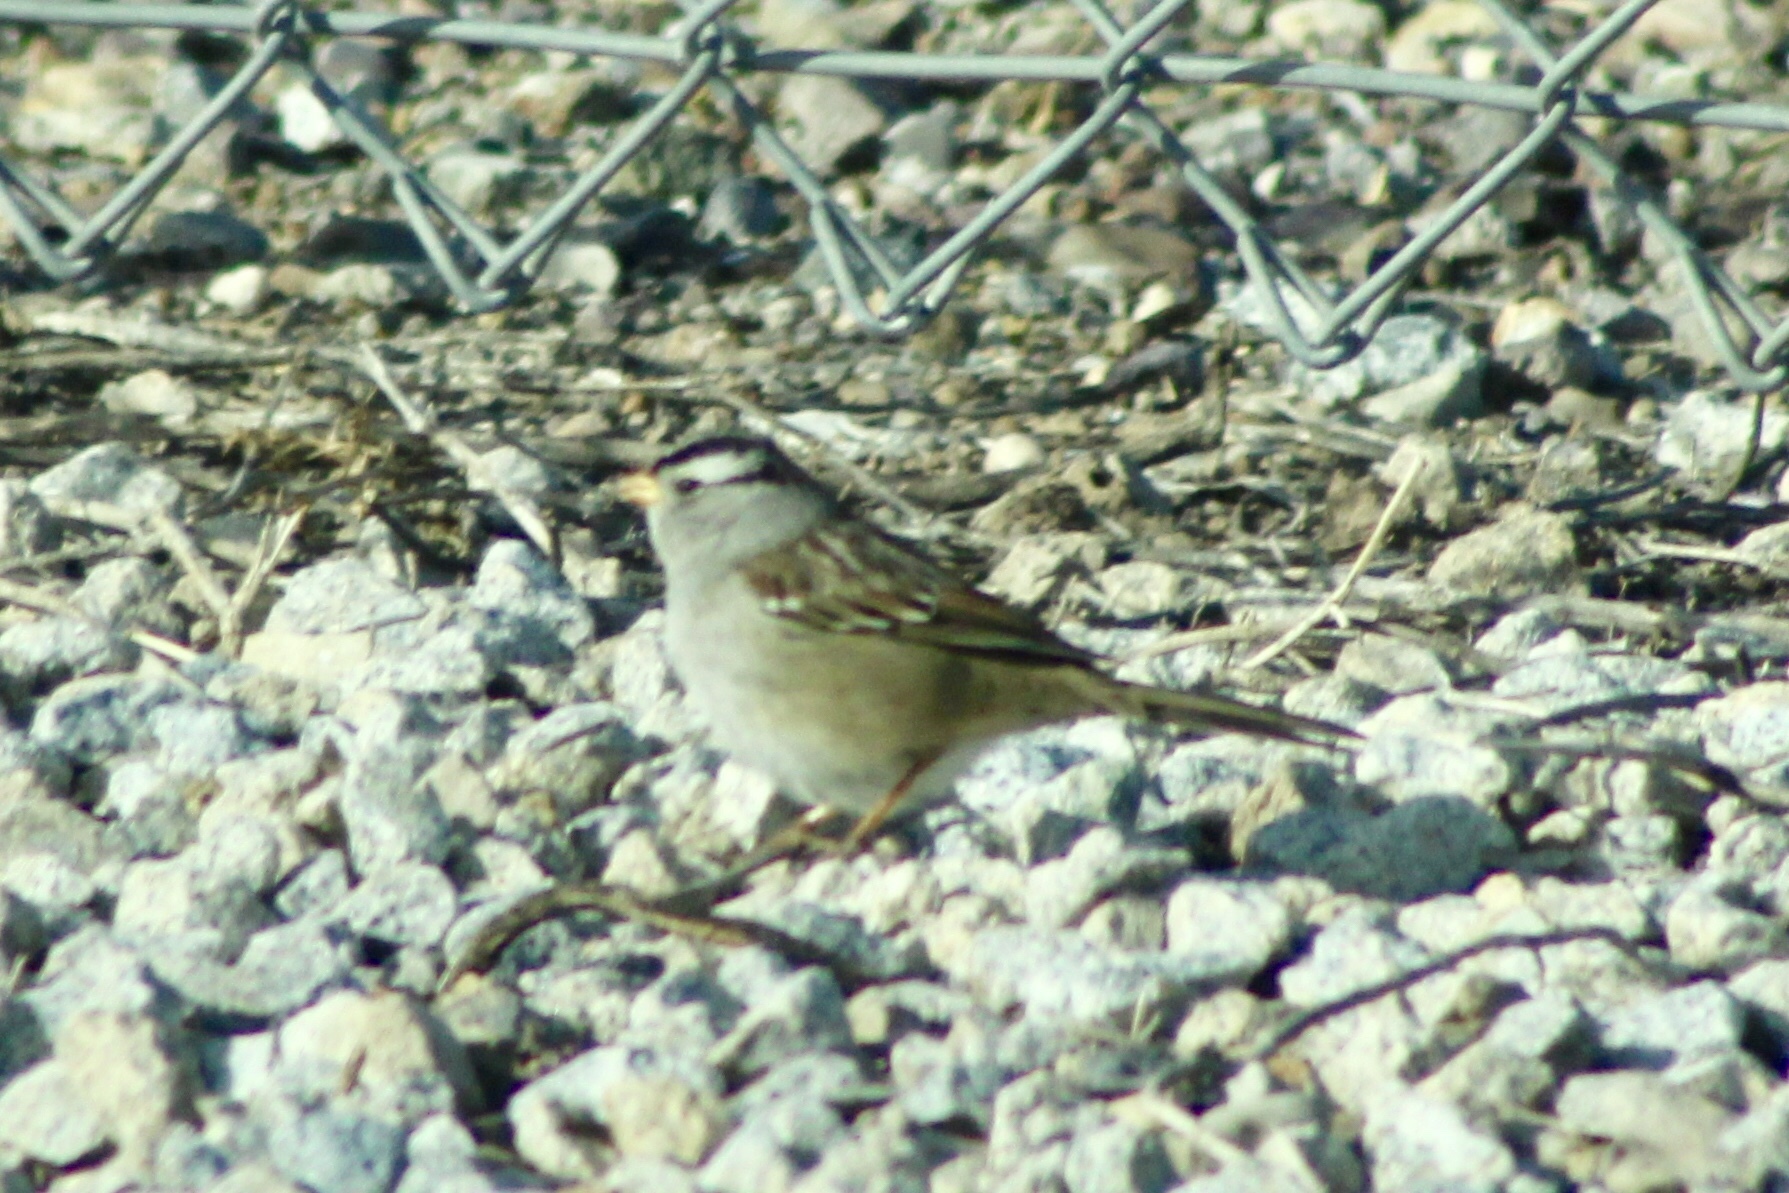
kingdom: Animalia
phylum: Chordata
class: Aves
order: Passeriformes
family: Passerellidae
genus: Zonotrichia
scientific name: Zonotrichia leucophrys
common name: White-crowned sparrow
